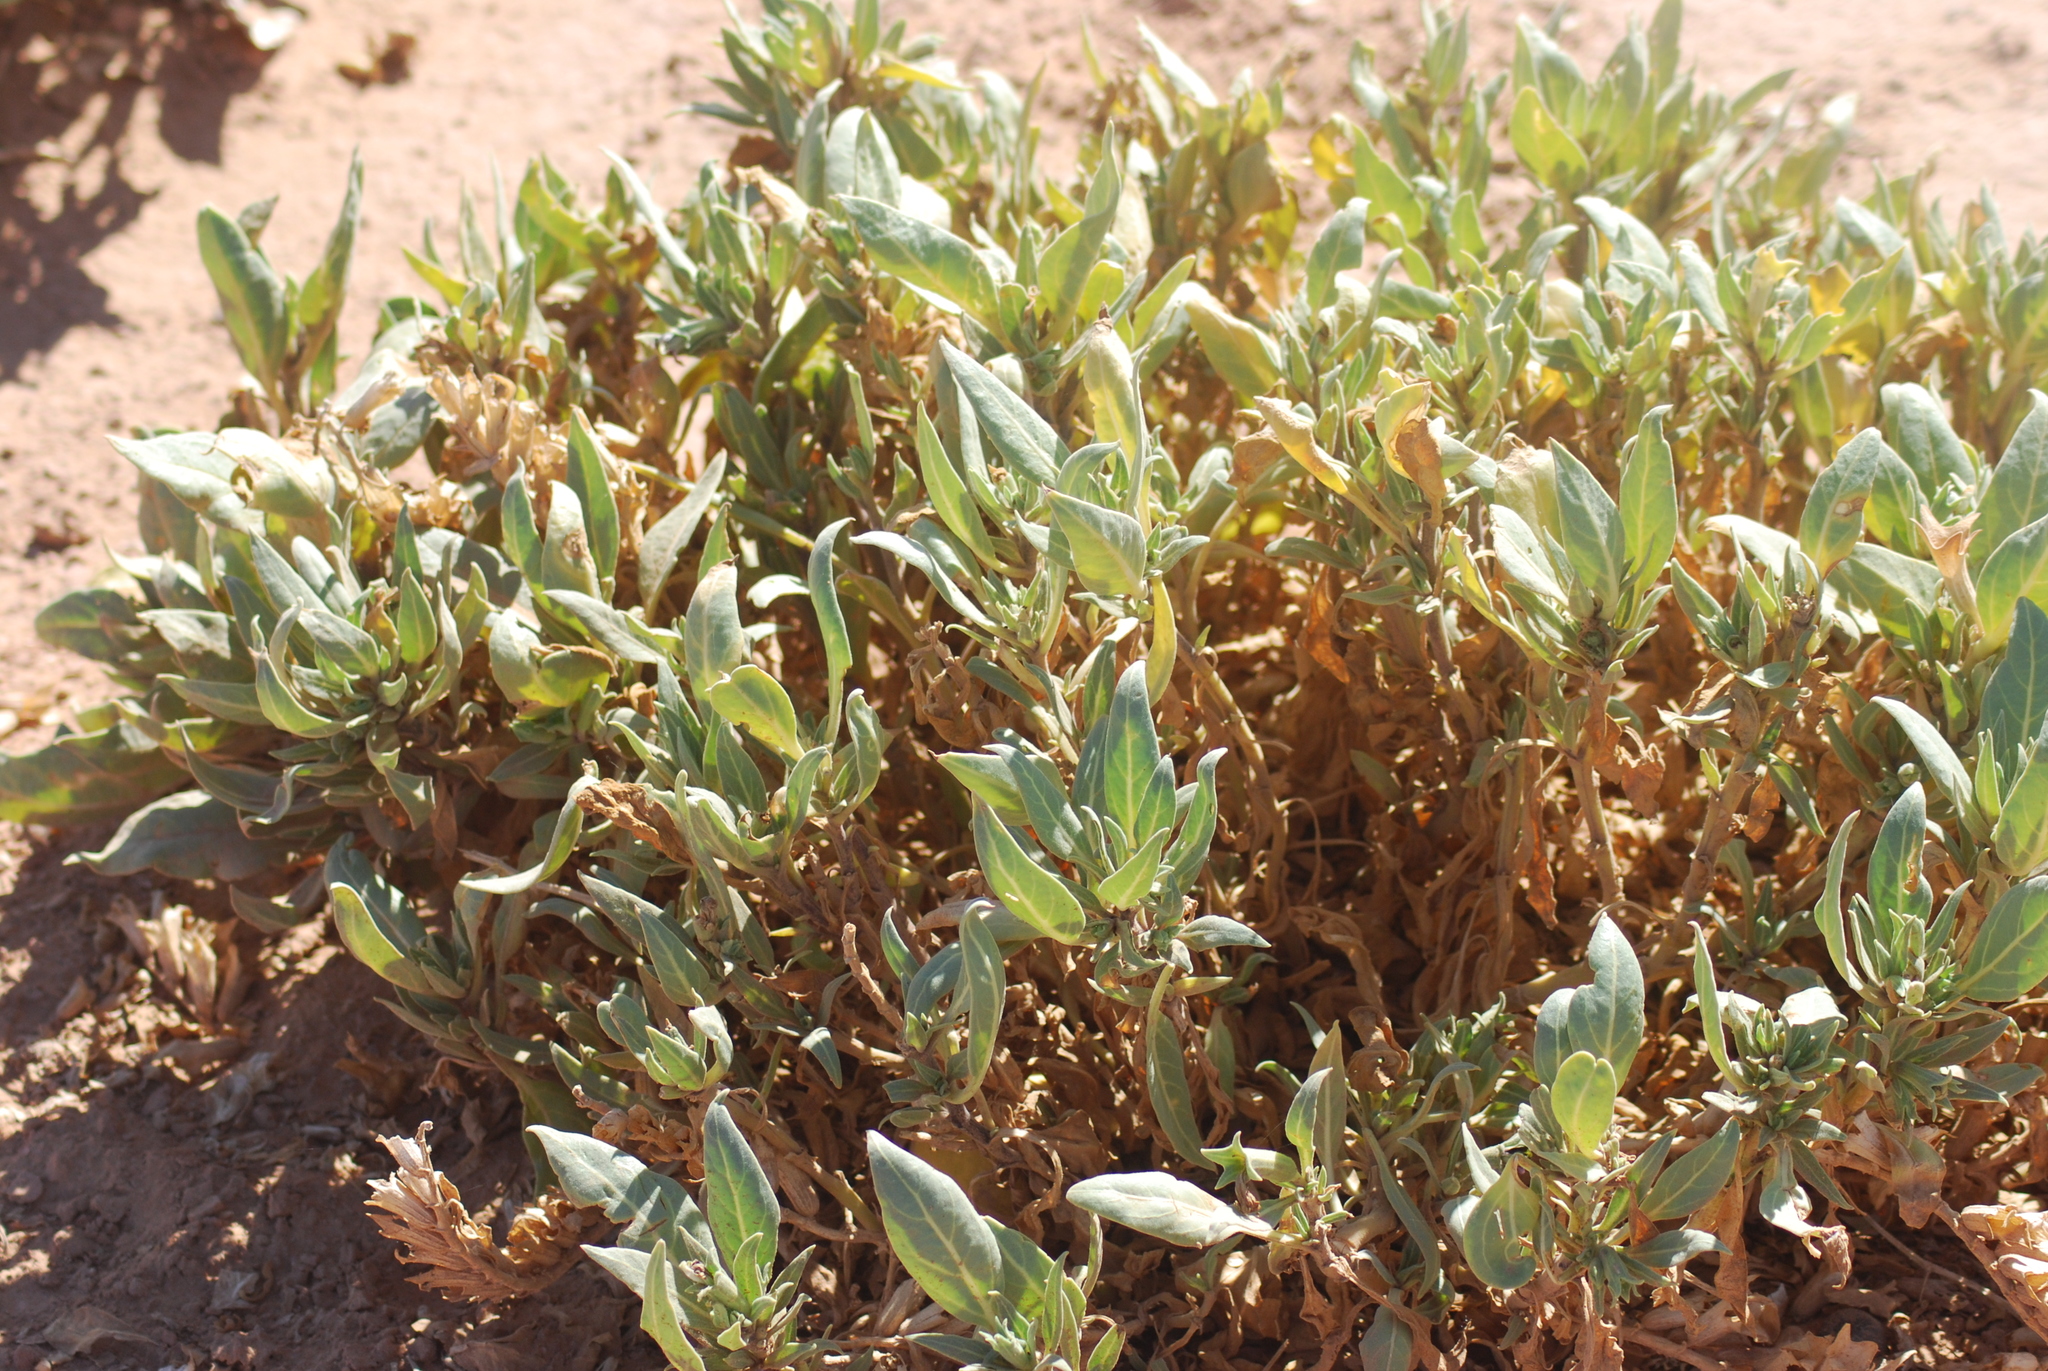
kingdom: Plantae
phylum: Tracheophyta
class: Magnoliopsida
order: Solanales
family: Solanaceae
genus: Hyoscyamus
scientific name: Hyoscyamus muticus
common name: Henbane
